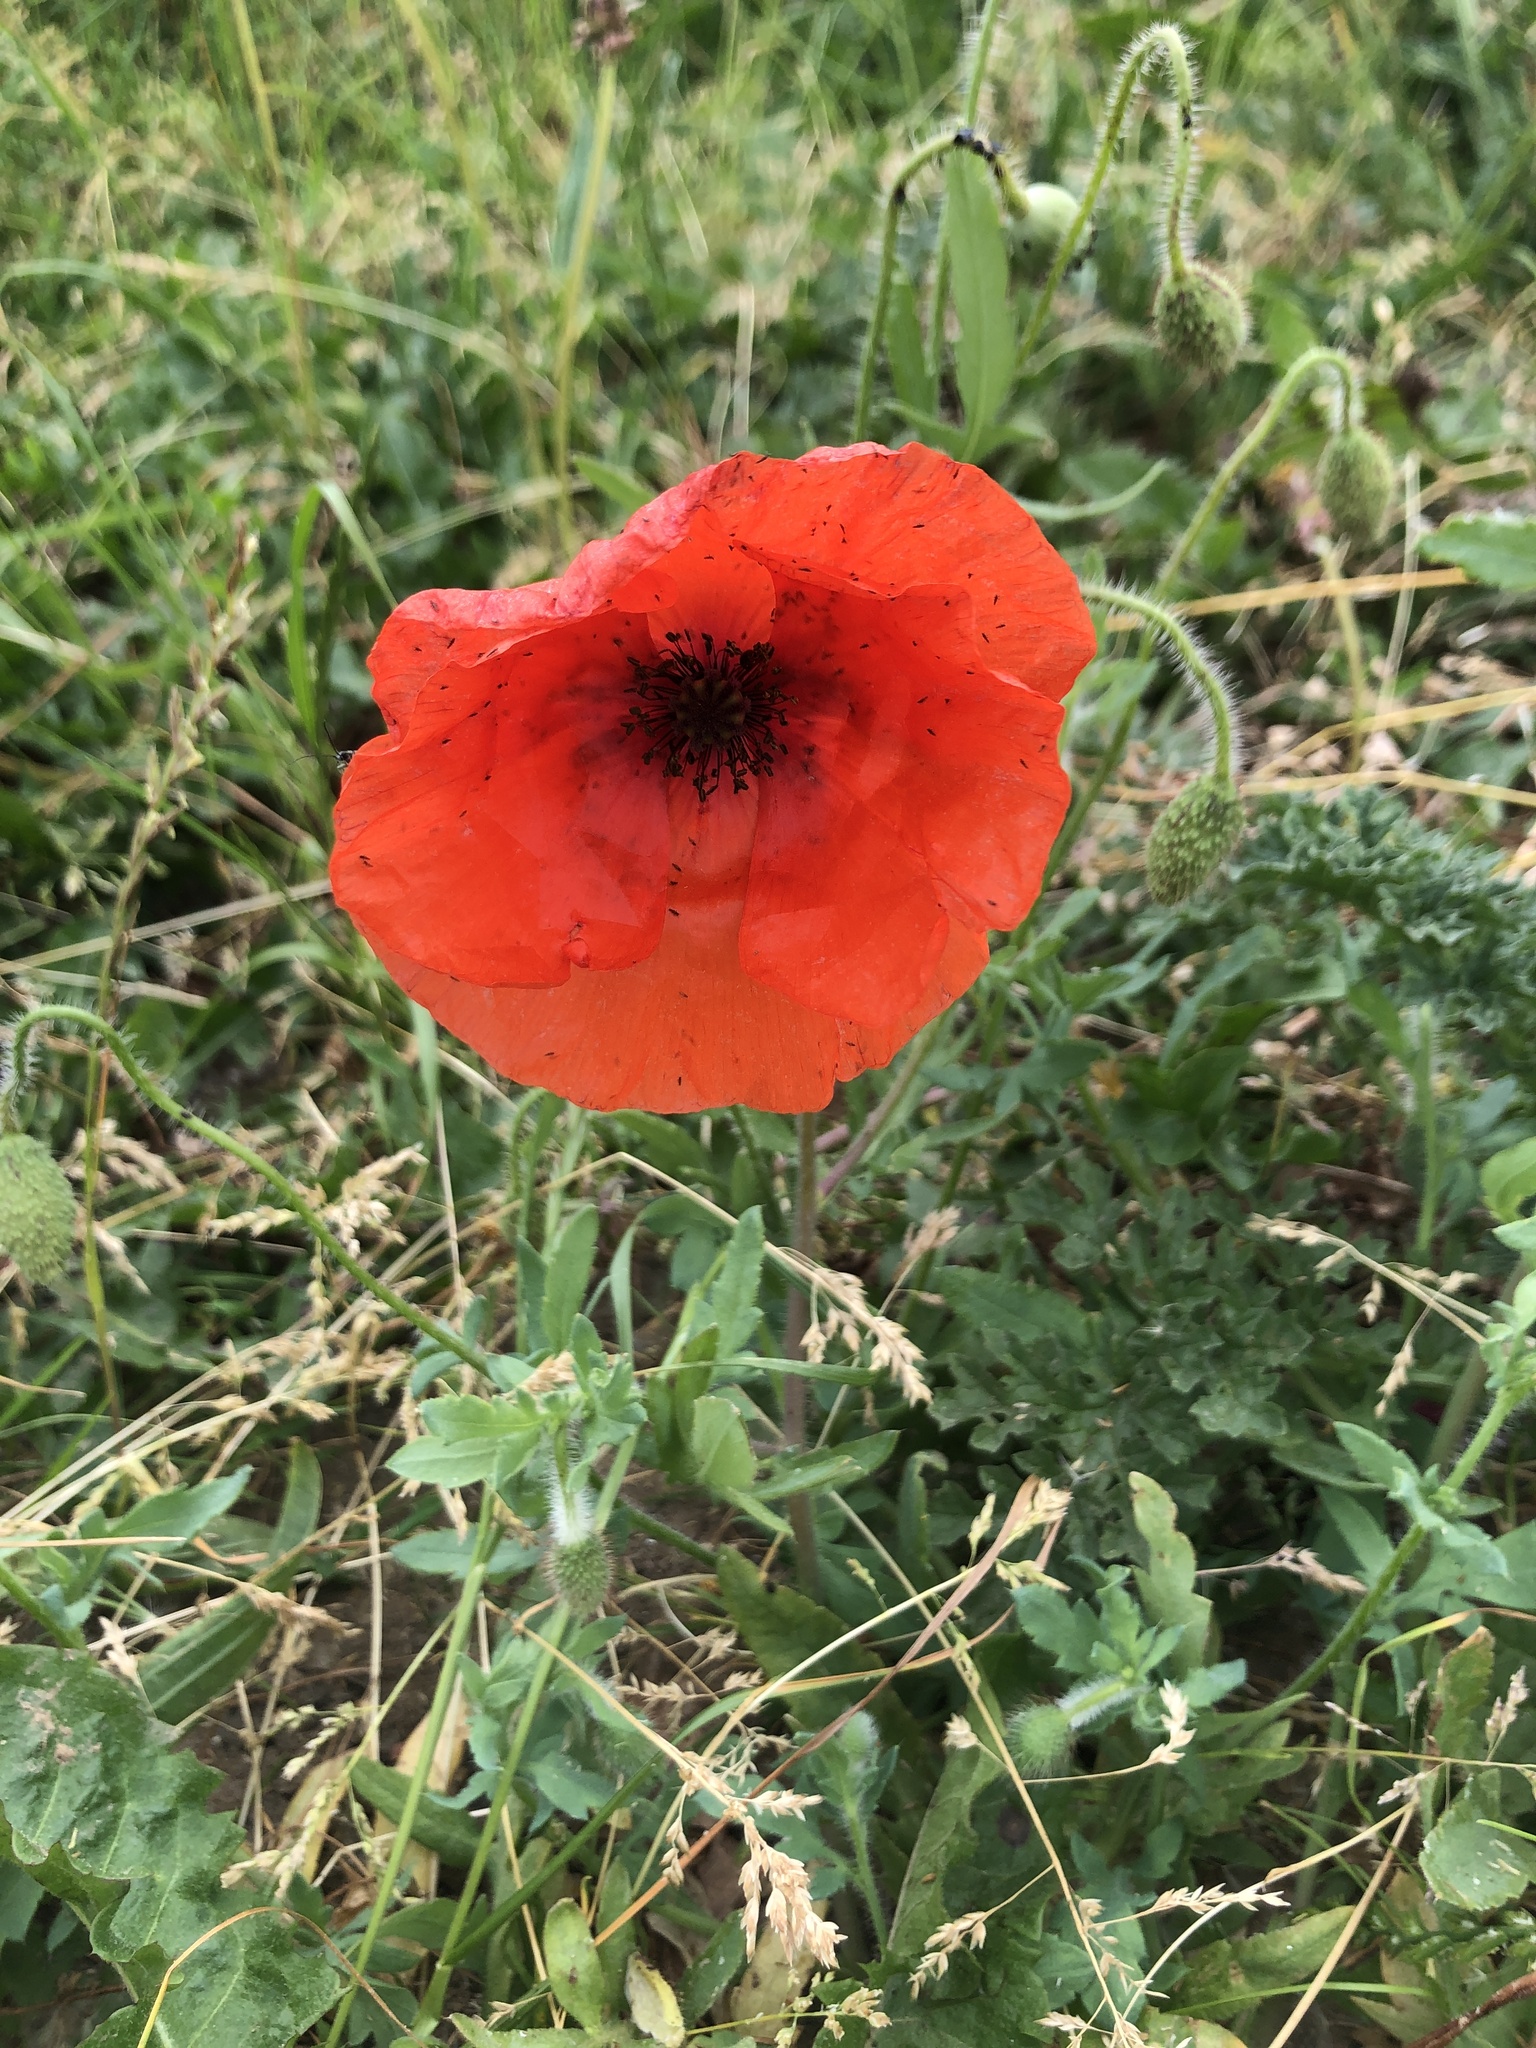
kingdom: Plantae
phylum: Tracheophyta
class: Magnoliopsida
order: Ranunculales
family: Papaveraceae
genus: Papaver
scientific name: Papaver rhoeas
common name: Corn poppy
